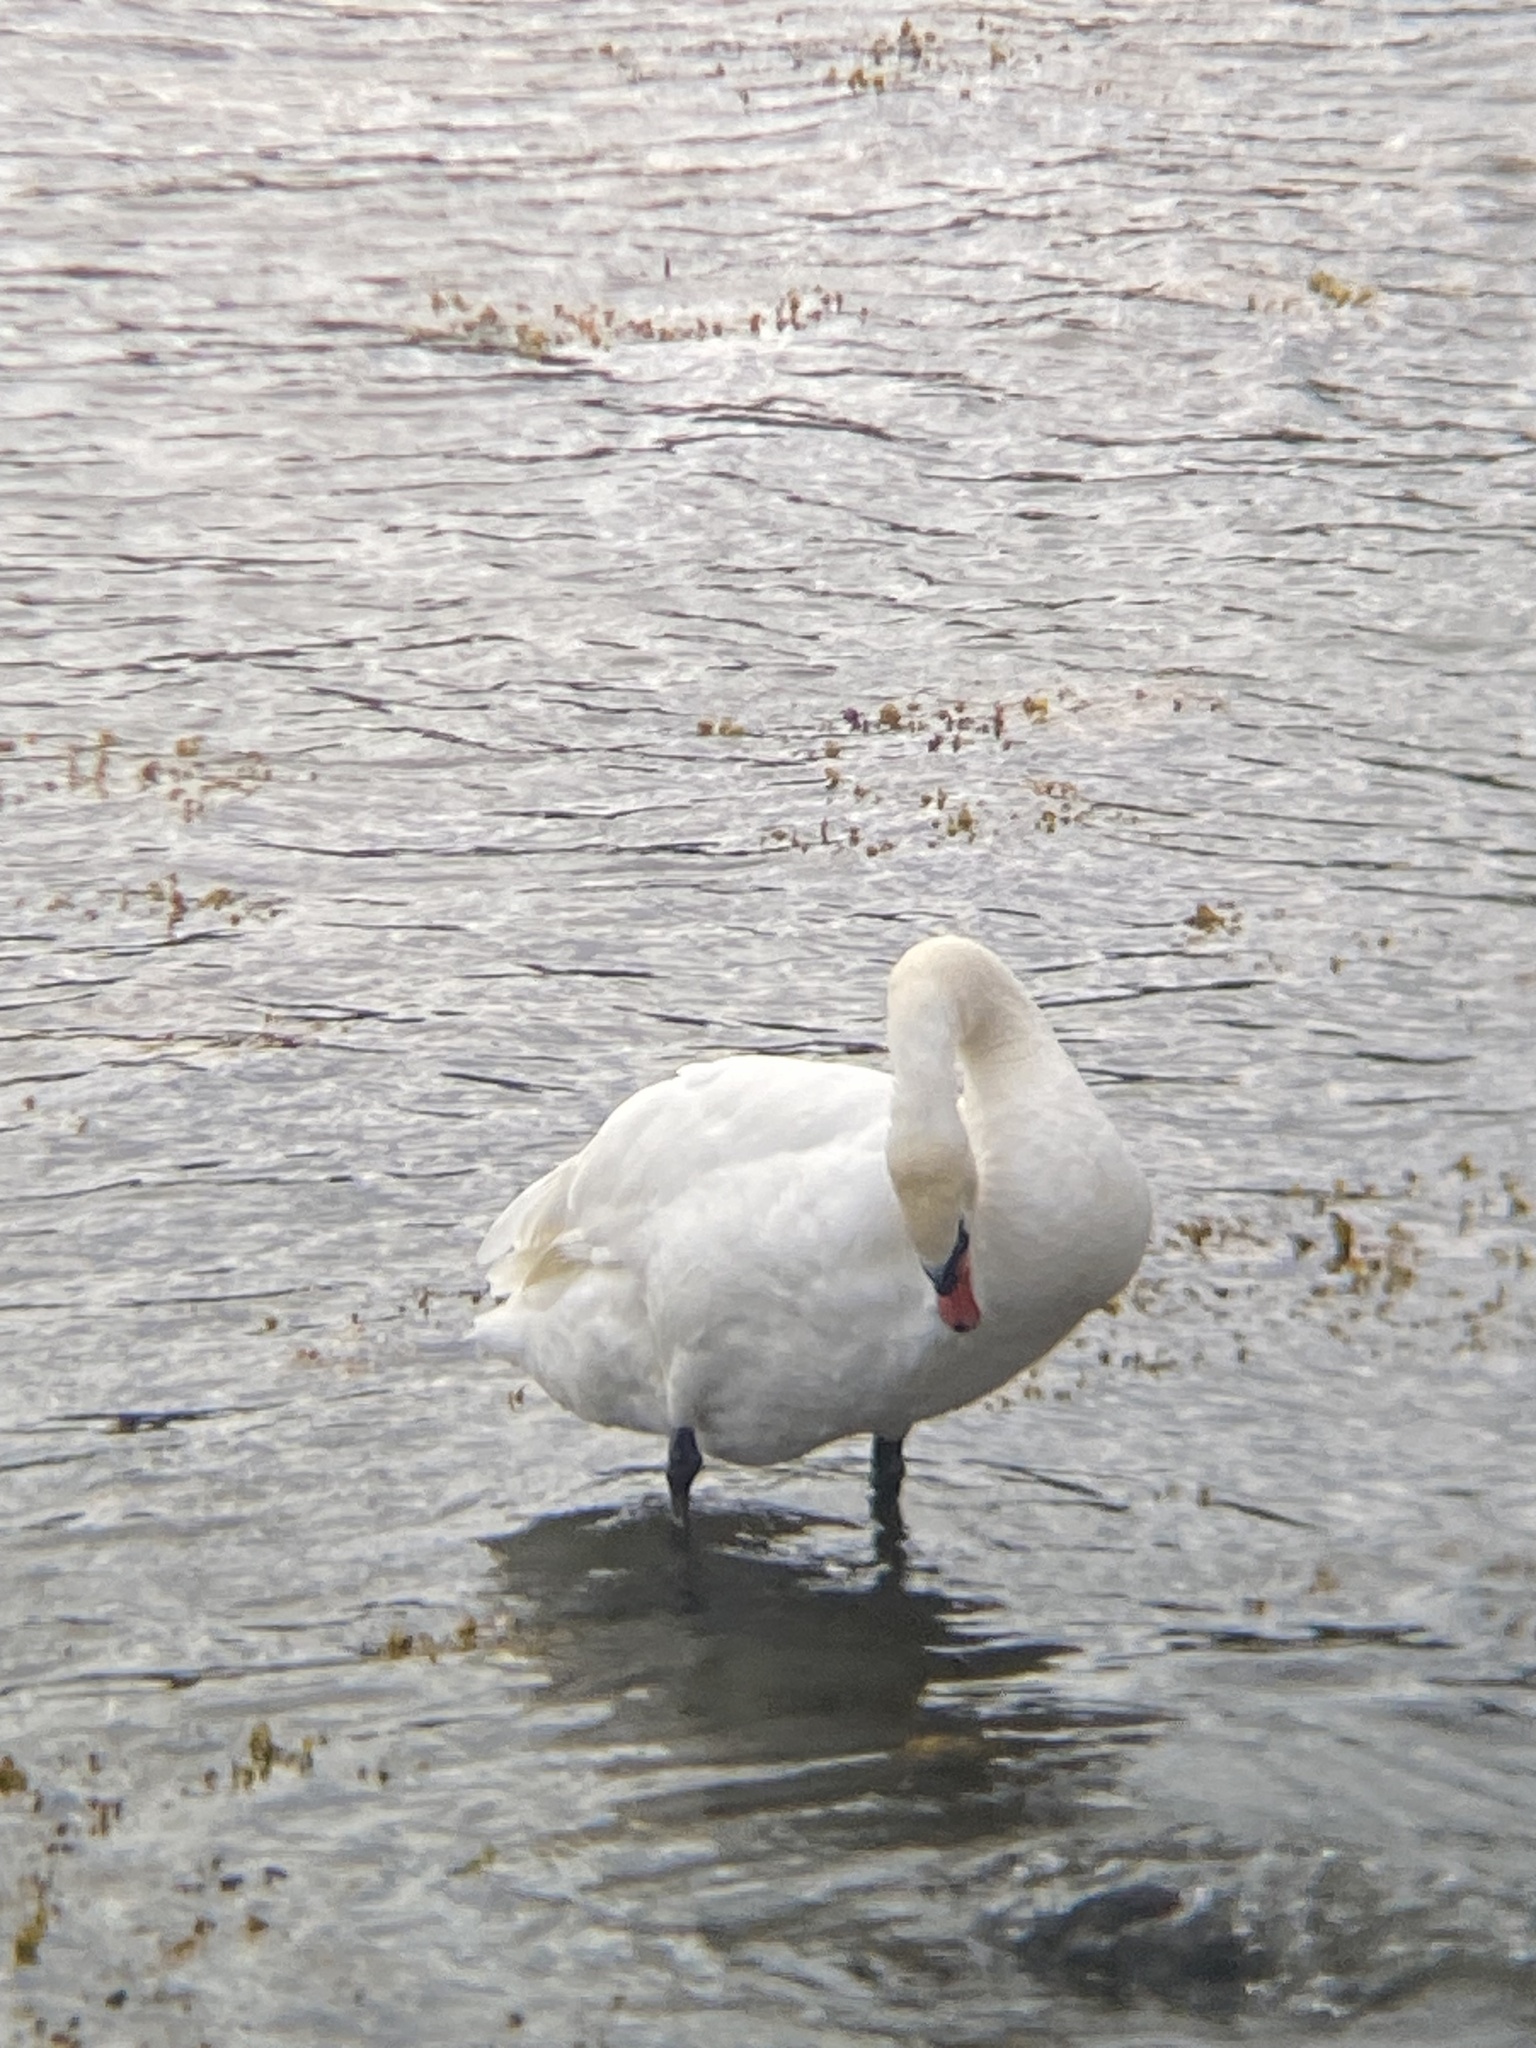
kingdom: Animalia
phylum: Chordata
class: Aves
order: Anseriformes
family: Anatidae
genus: Cygnus
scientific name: Cygnus olor
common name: Mute swan
